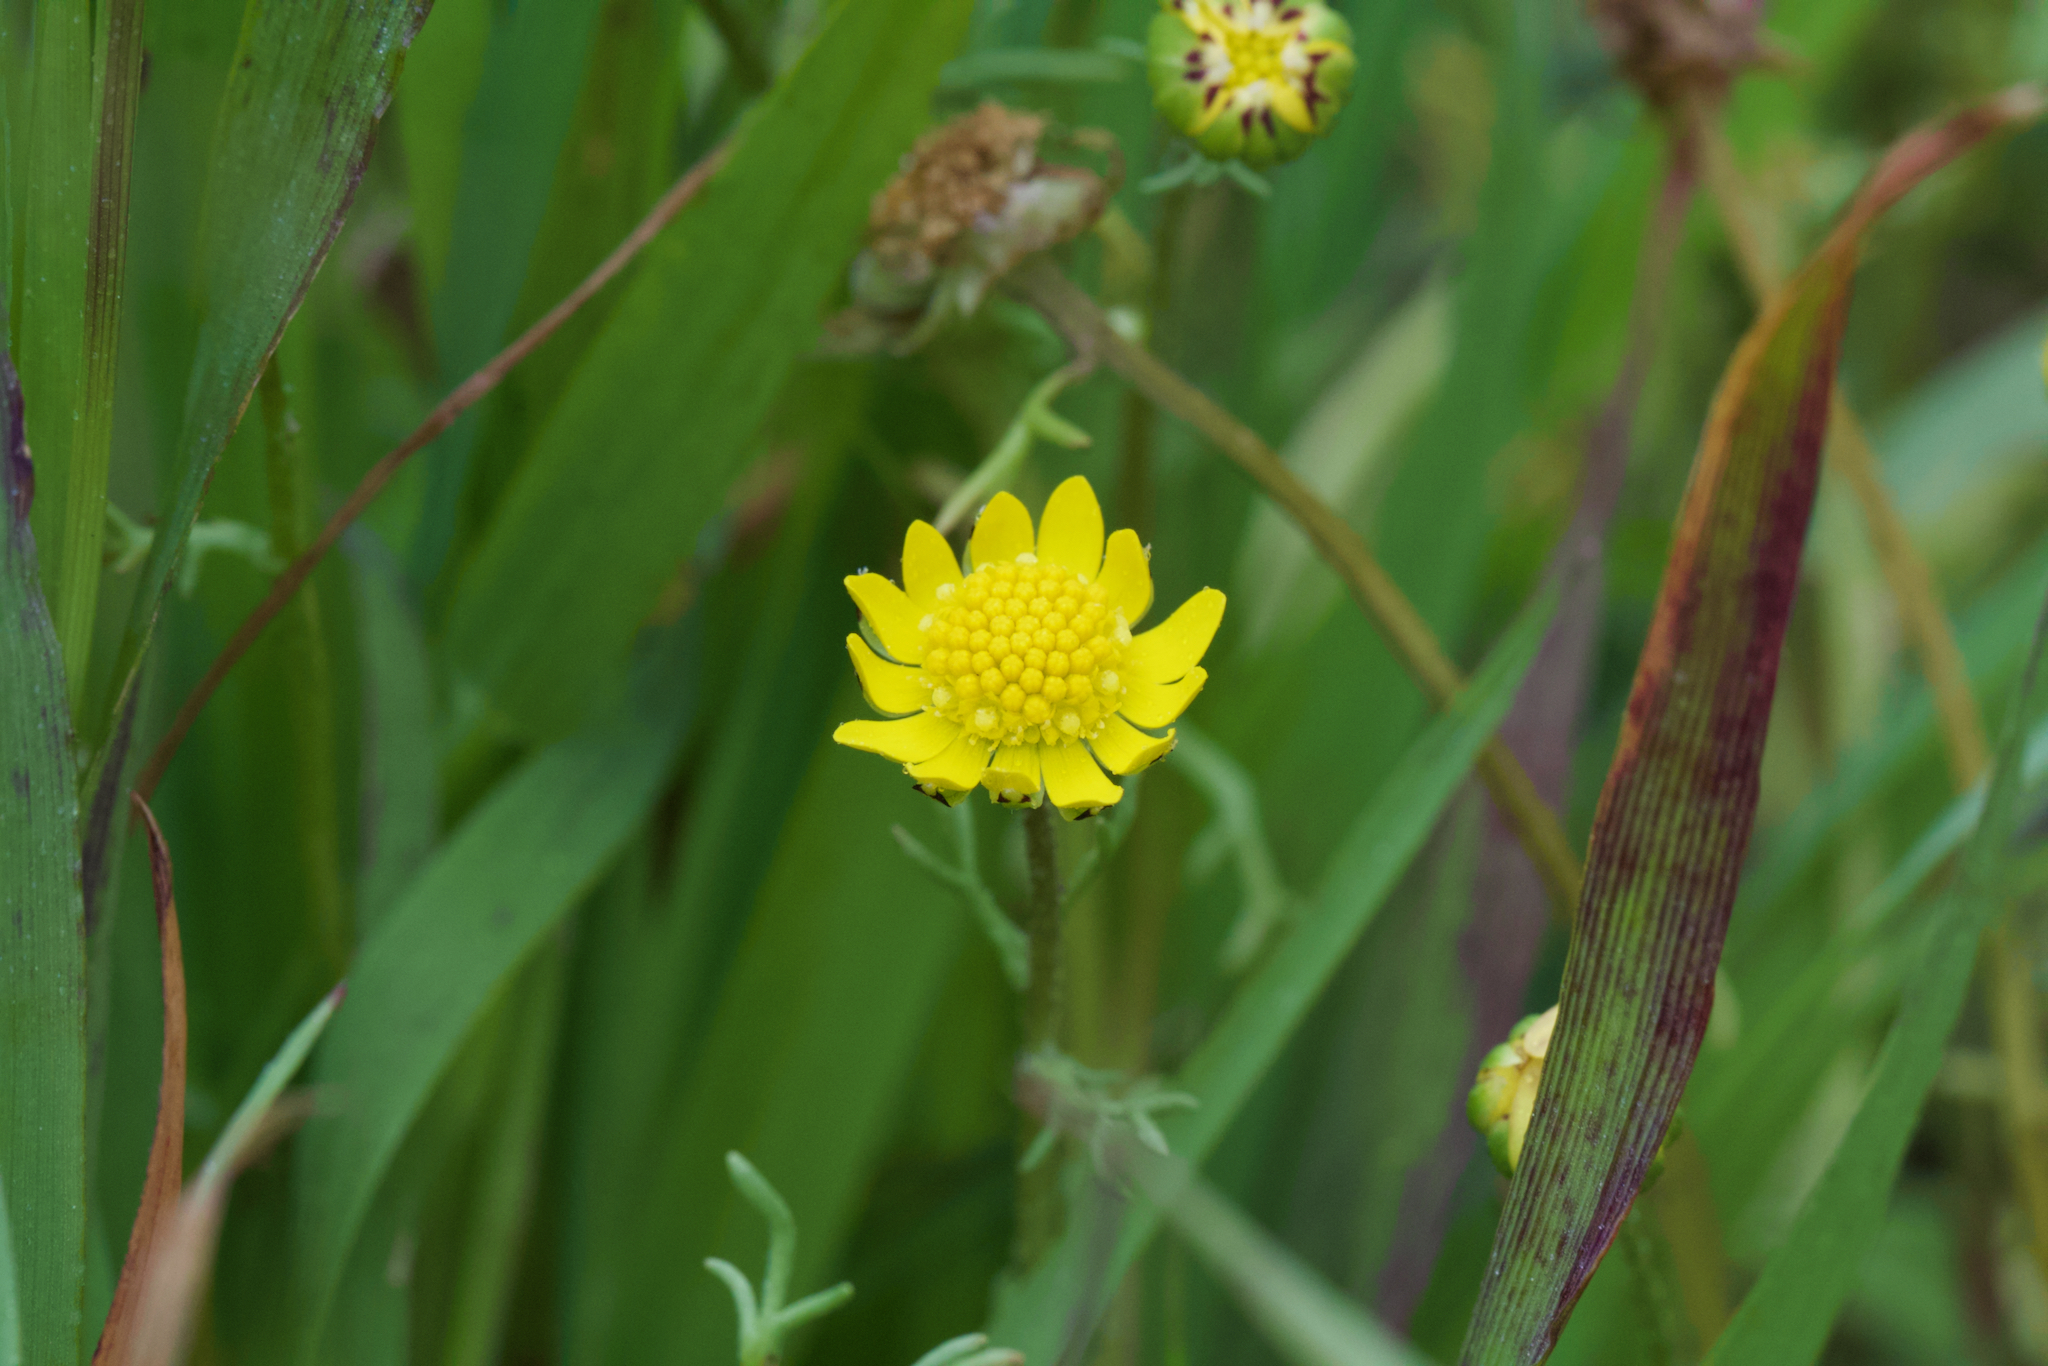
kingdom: Plantae
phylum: Tracheophyta
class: Magnoliopsida
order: Asterales
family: Asteraceae
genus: Blennosperma
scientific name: Blennosperma nanum
